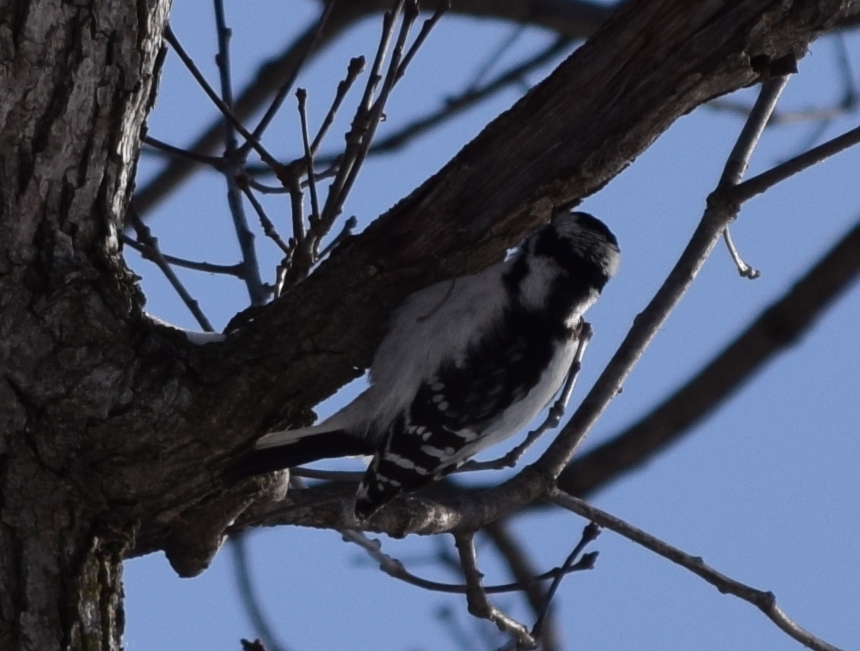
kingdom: Animalia
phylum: Chordata
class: Aves
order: Piciformes
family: Picidae
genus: Dryobates
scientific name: Dryobates pubescens
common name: Downy woodpecker
